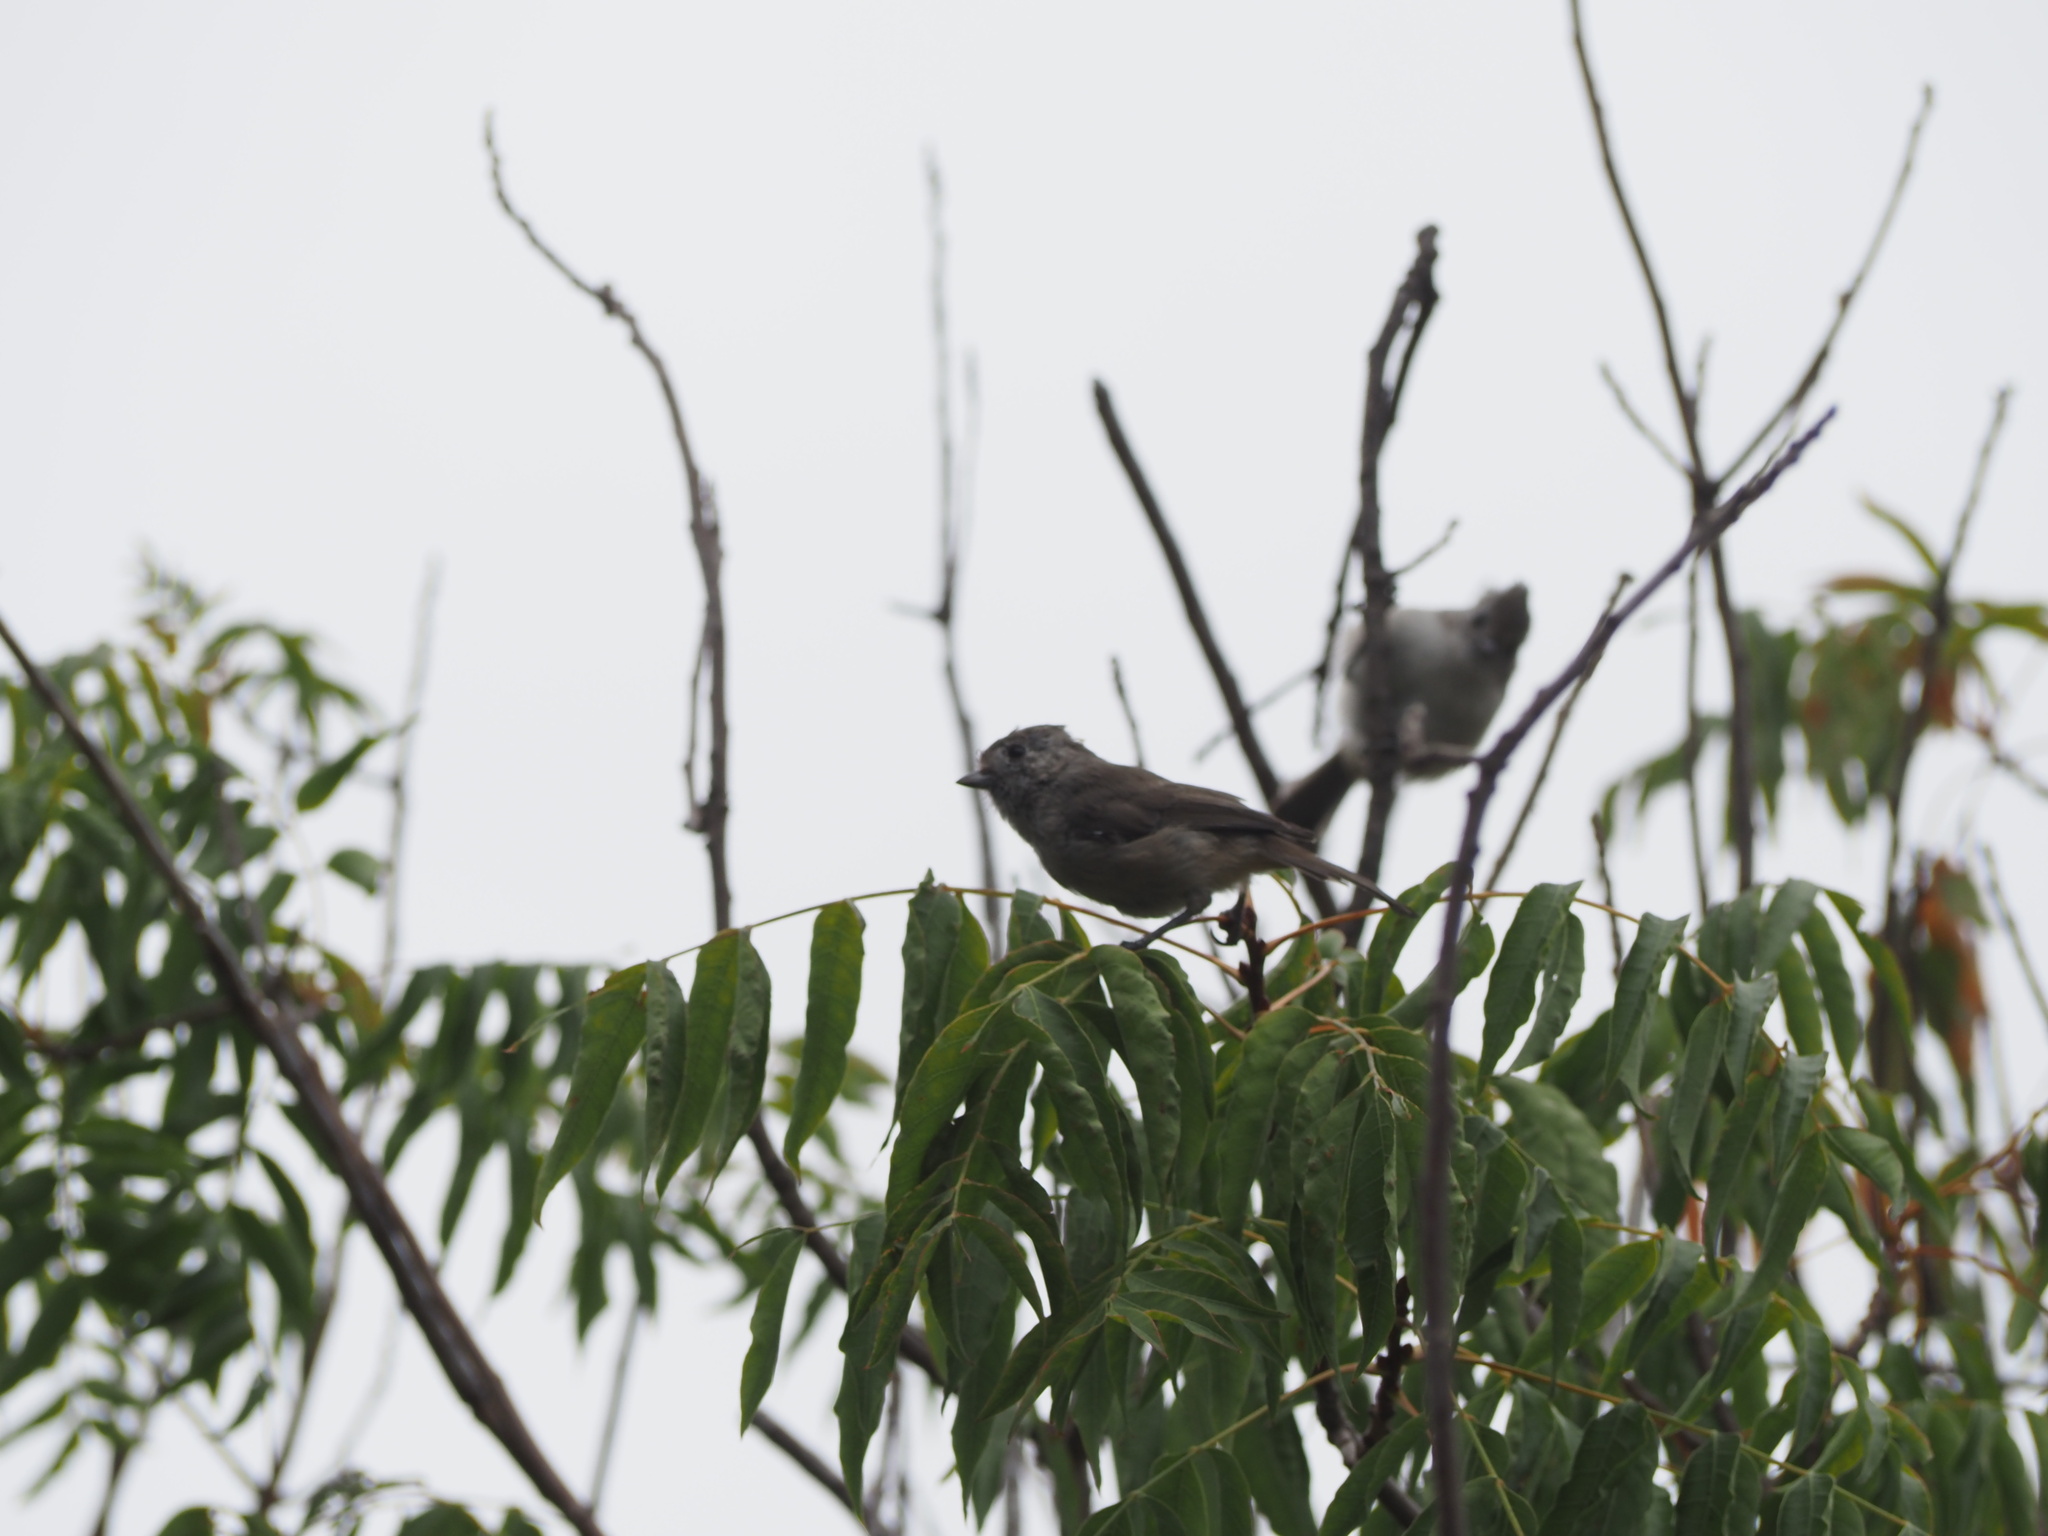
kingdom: Animalia
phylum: Chordata
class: Aves
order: Passeriformes
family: Paridae
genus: Baeolophus
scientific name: Baeolophus inornatus
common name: Oak titmouse
